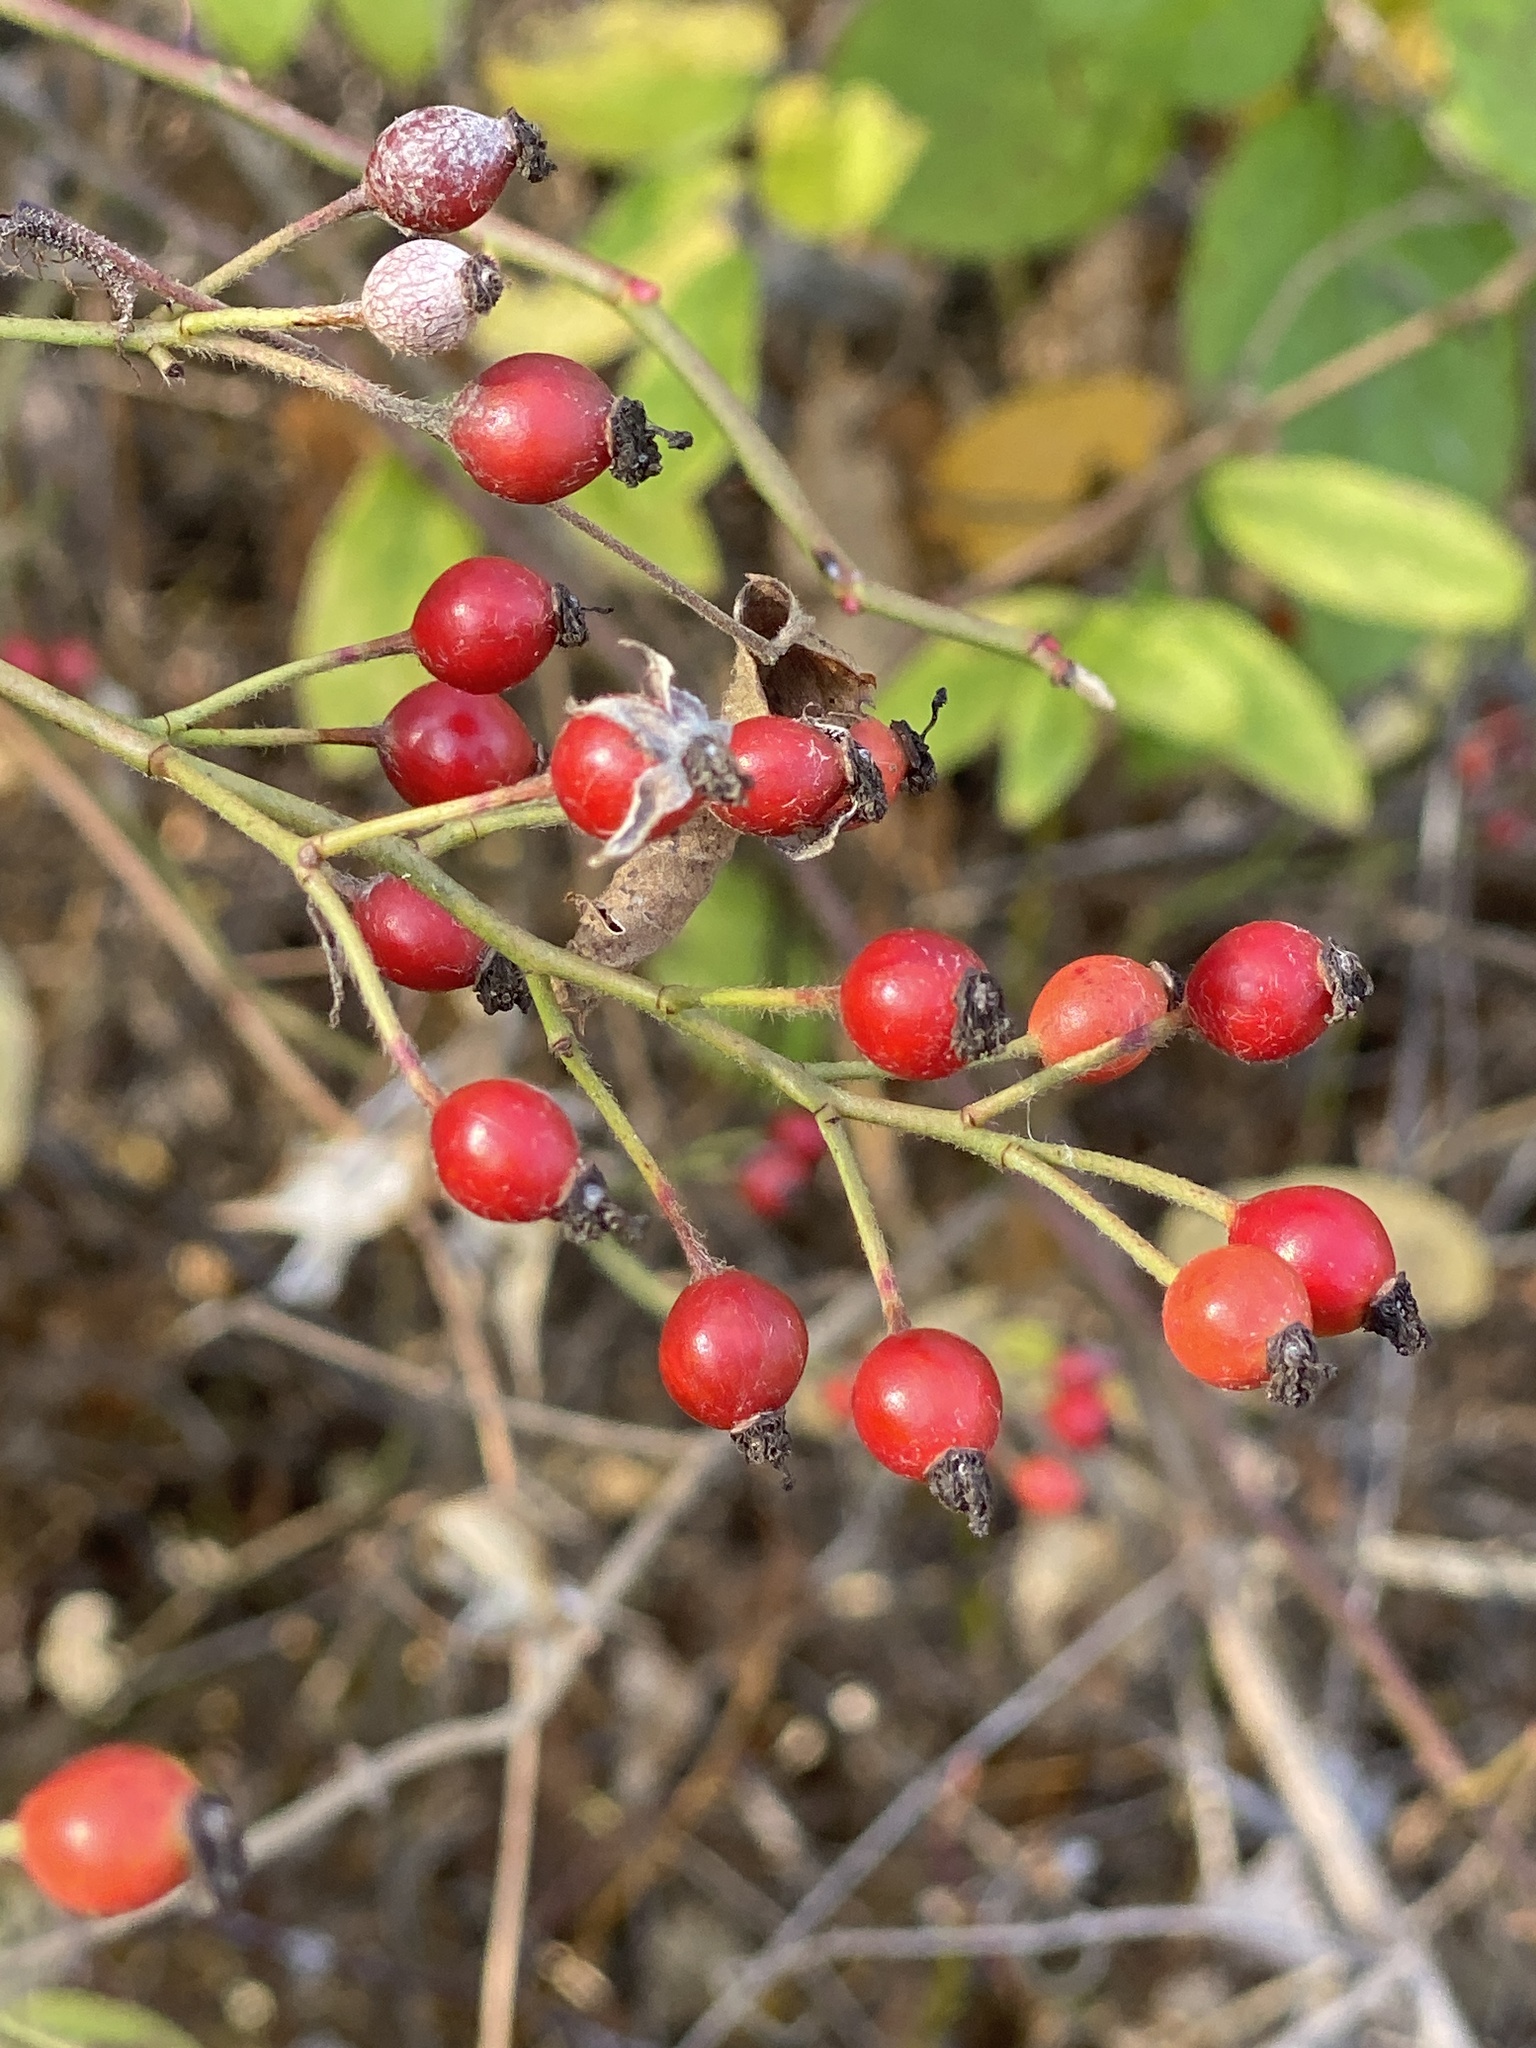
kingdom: Plantae
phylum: Tracheophyta
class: Magnoliopsida
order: Rosales
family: Rosaceae
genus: Rosa
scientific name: Rosa multiflora
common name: Multiflora rose
